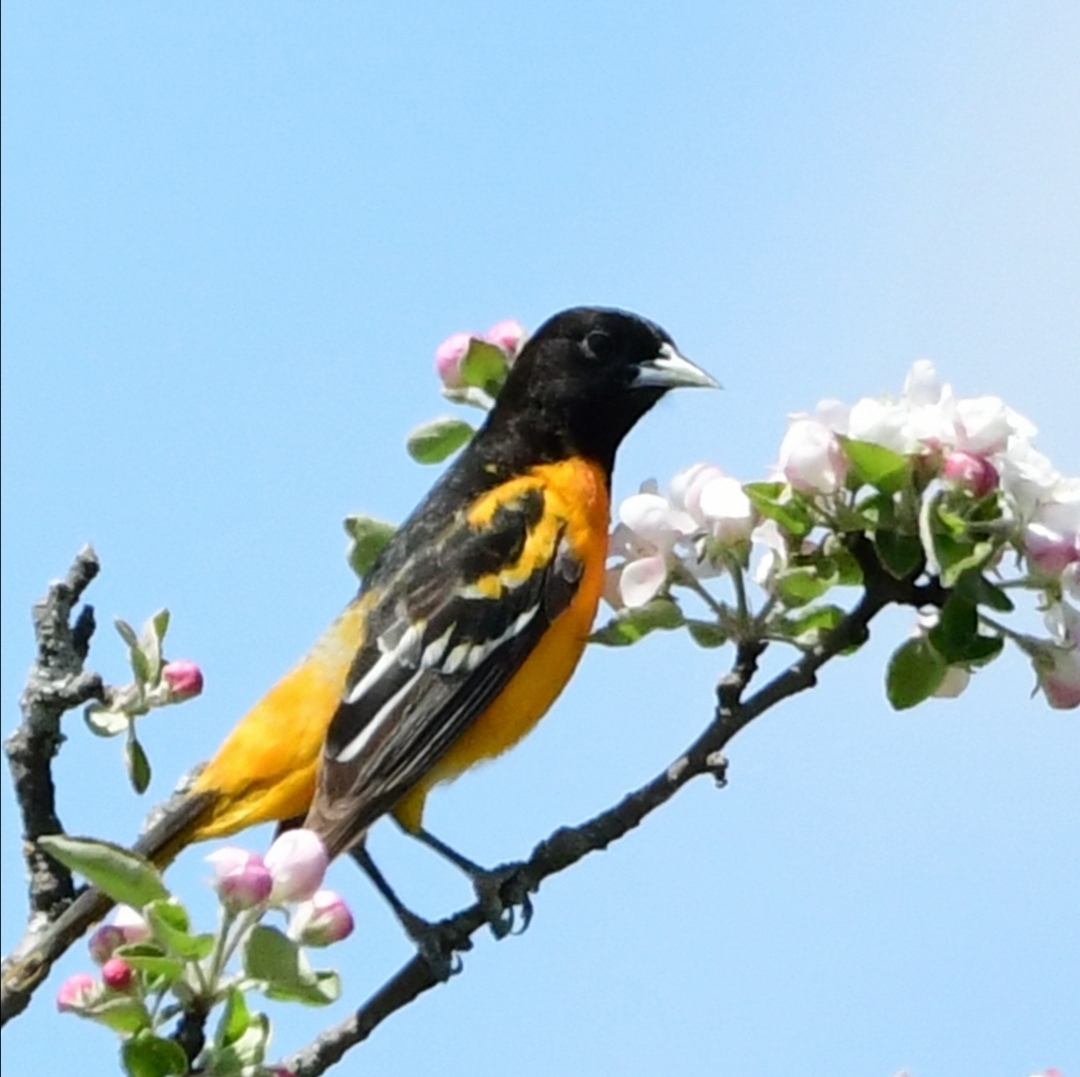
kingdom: Animalia
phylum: Chordata
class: Aves
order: Passeriformes
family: Icteridae
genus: Icterus
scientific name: Icterus galbula
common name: Baltimore oriole
